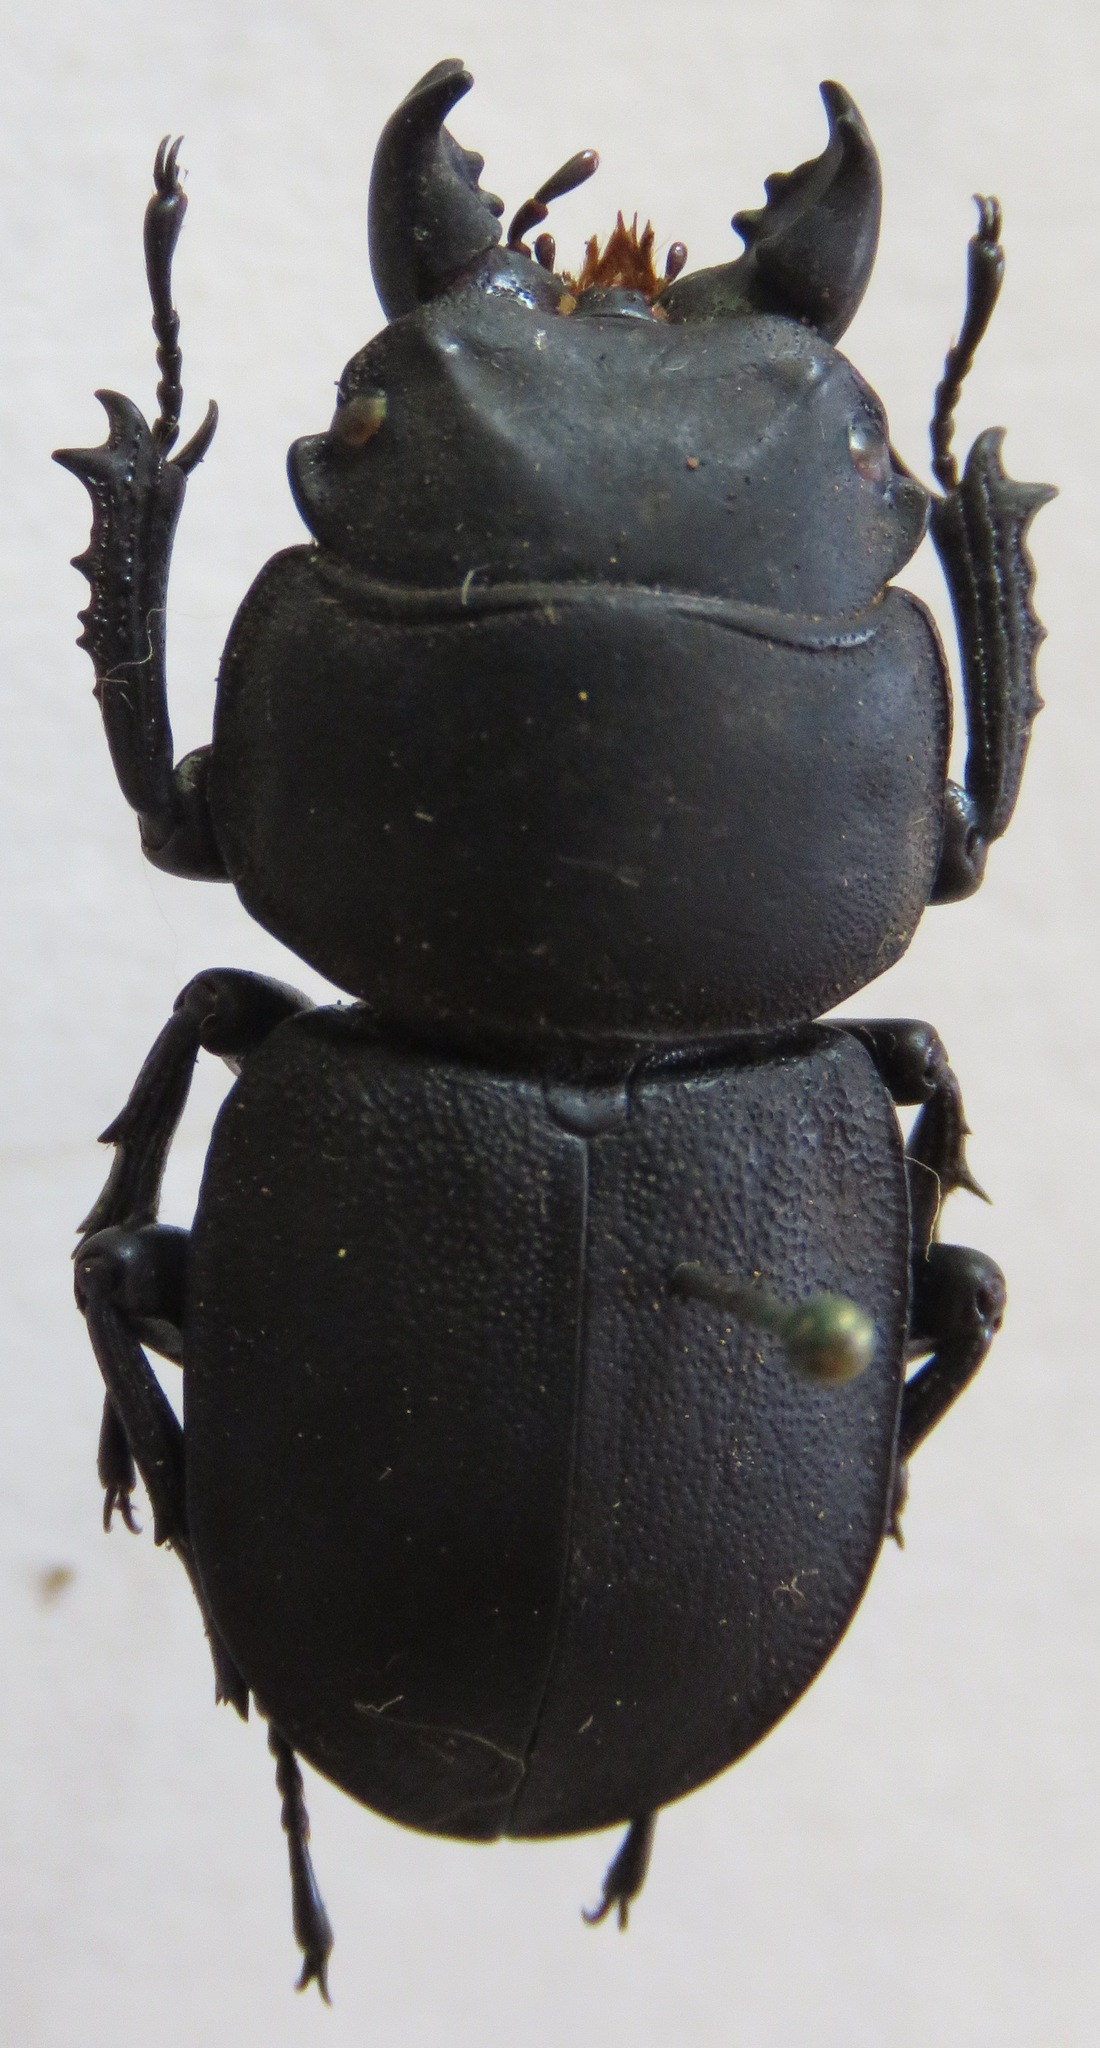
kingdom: Animalia
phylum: Arthropoda
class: Insecta
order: Coleoptera
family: Lucanidae
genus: Apterodorcus
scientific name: Apterodorcus bacchus
